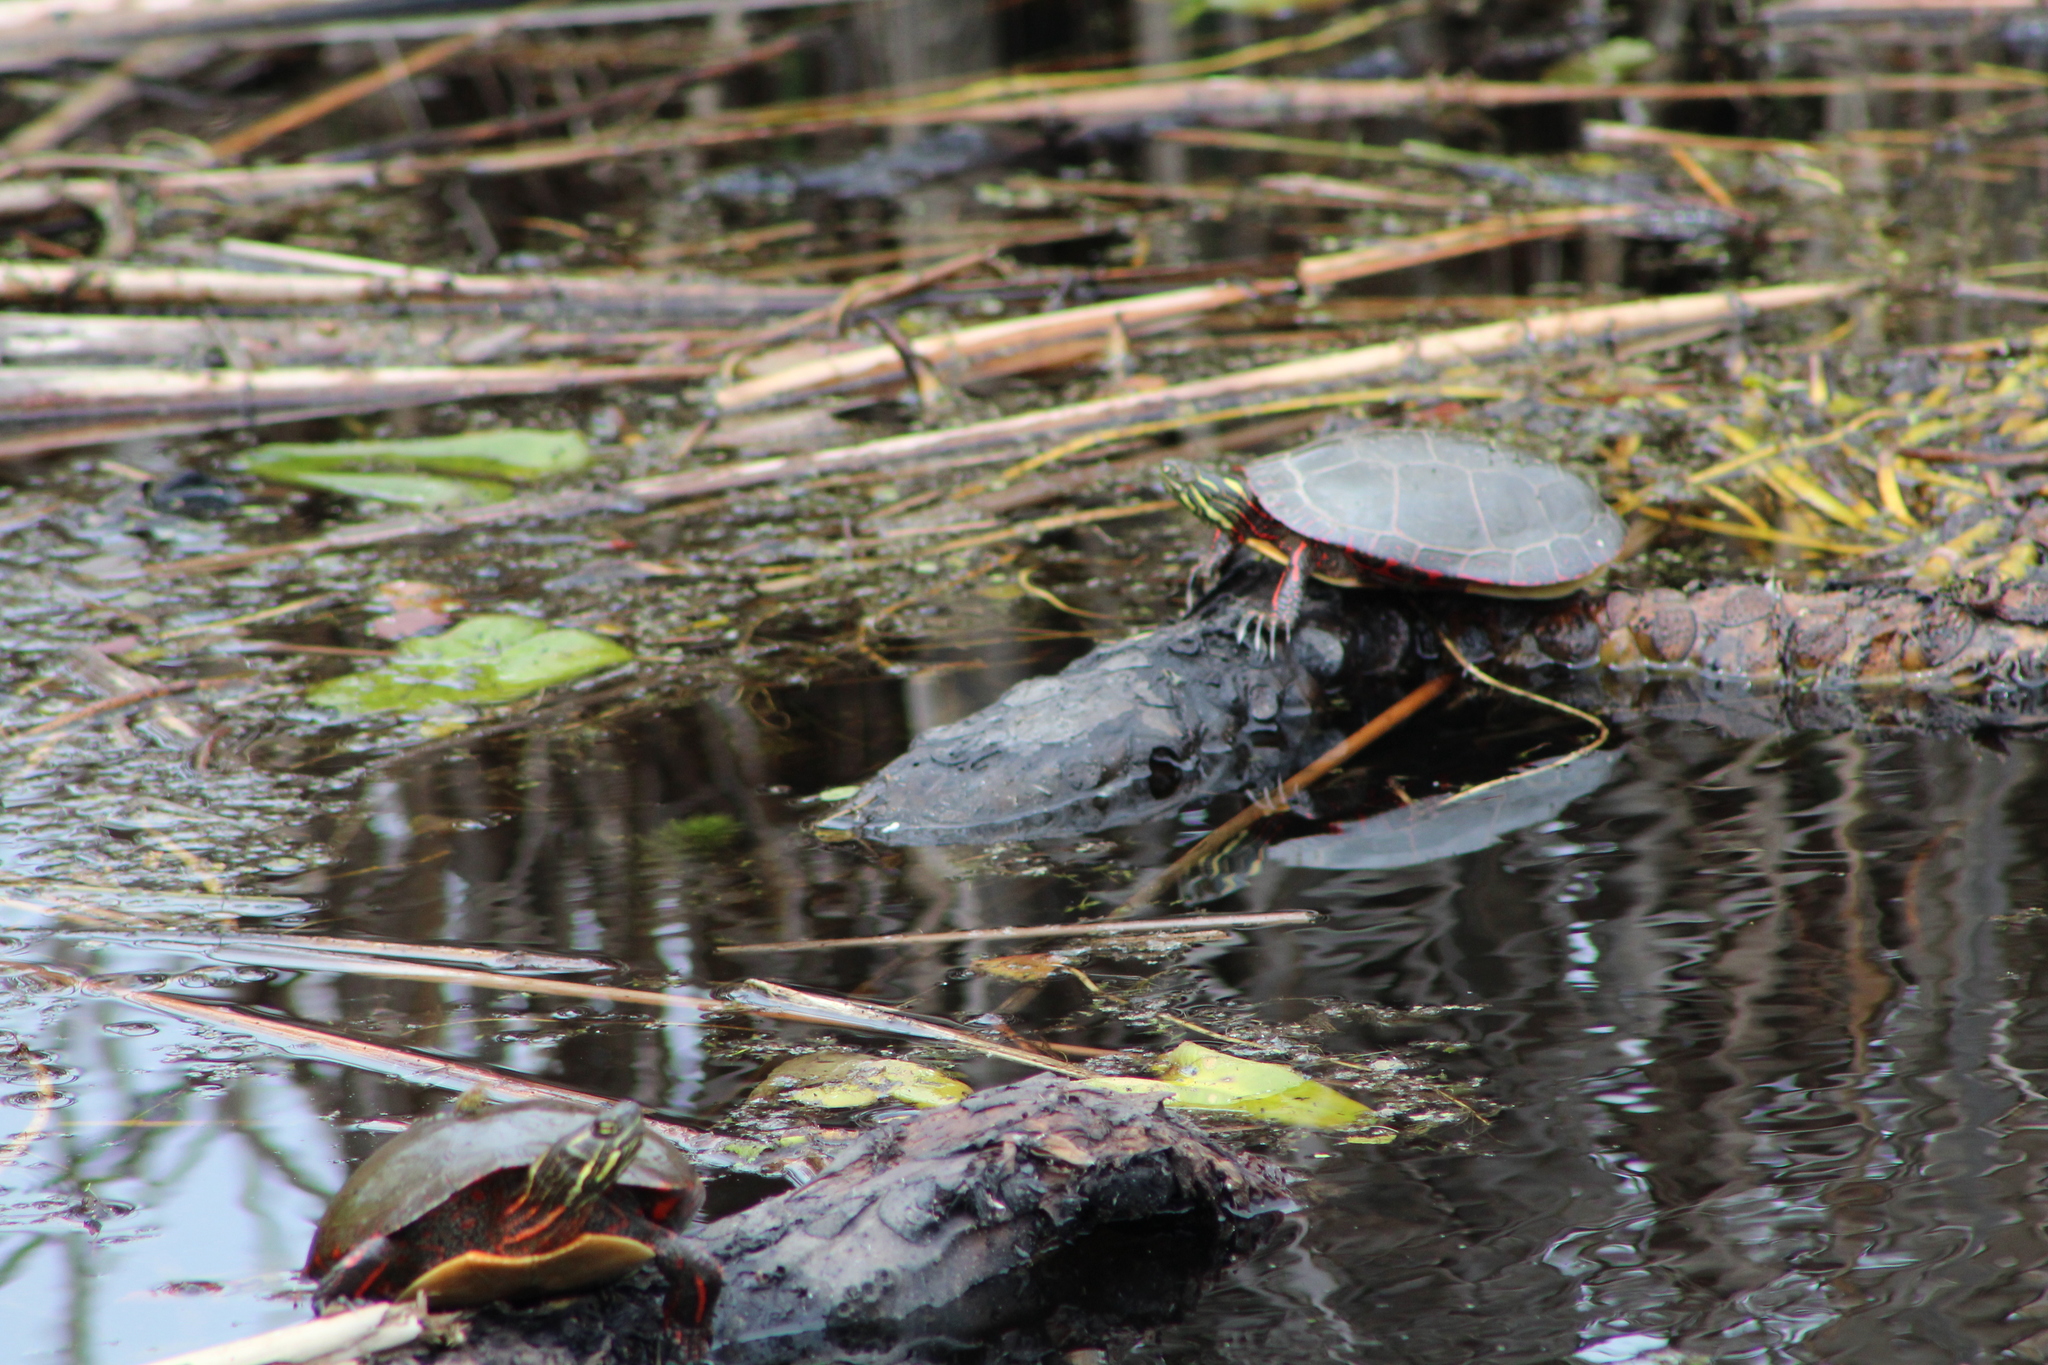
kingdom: Animalia
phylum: Chordata
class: Testudines
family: Emydidae
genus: Chrysemys
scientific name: Chrysemys picta
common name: Painted turtle
